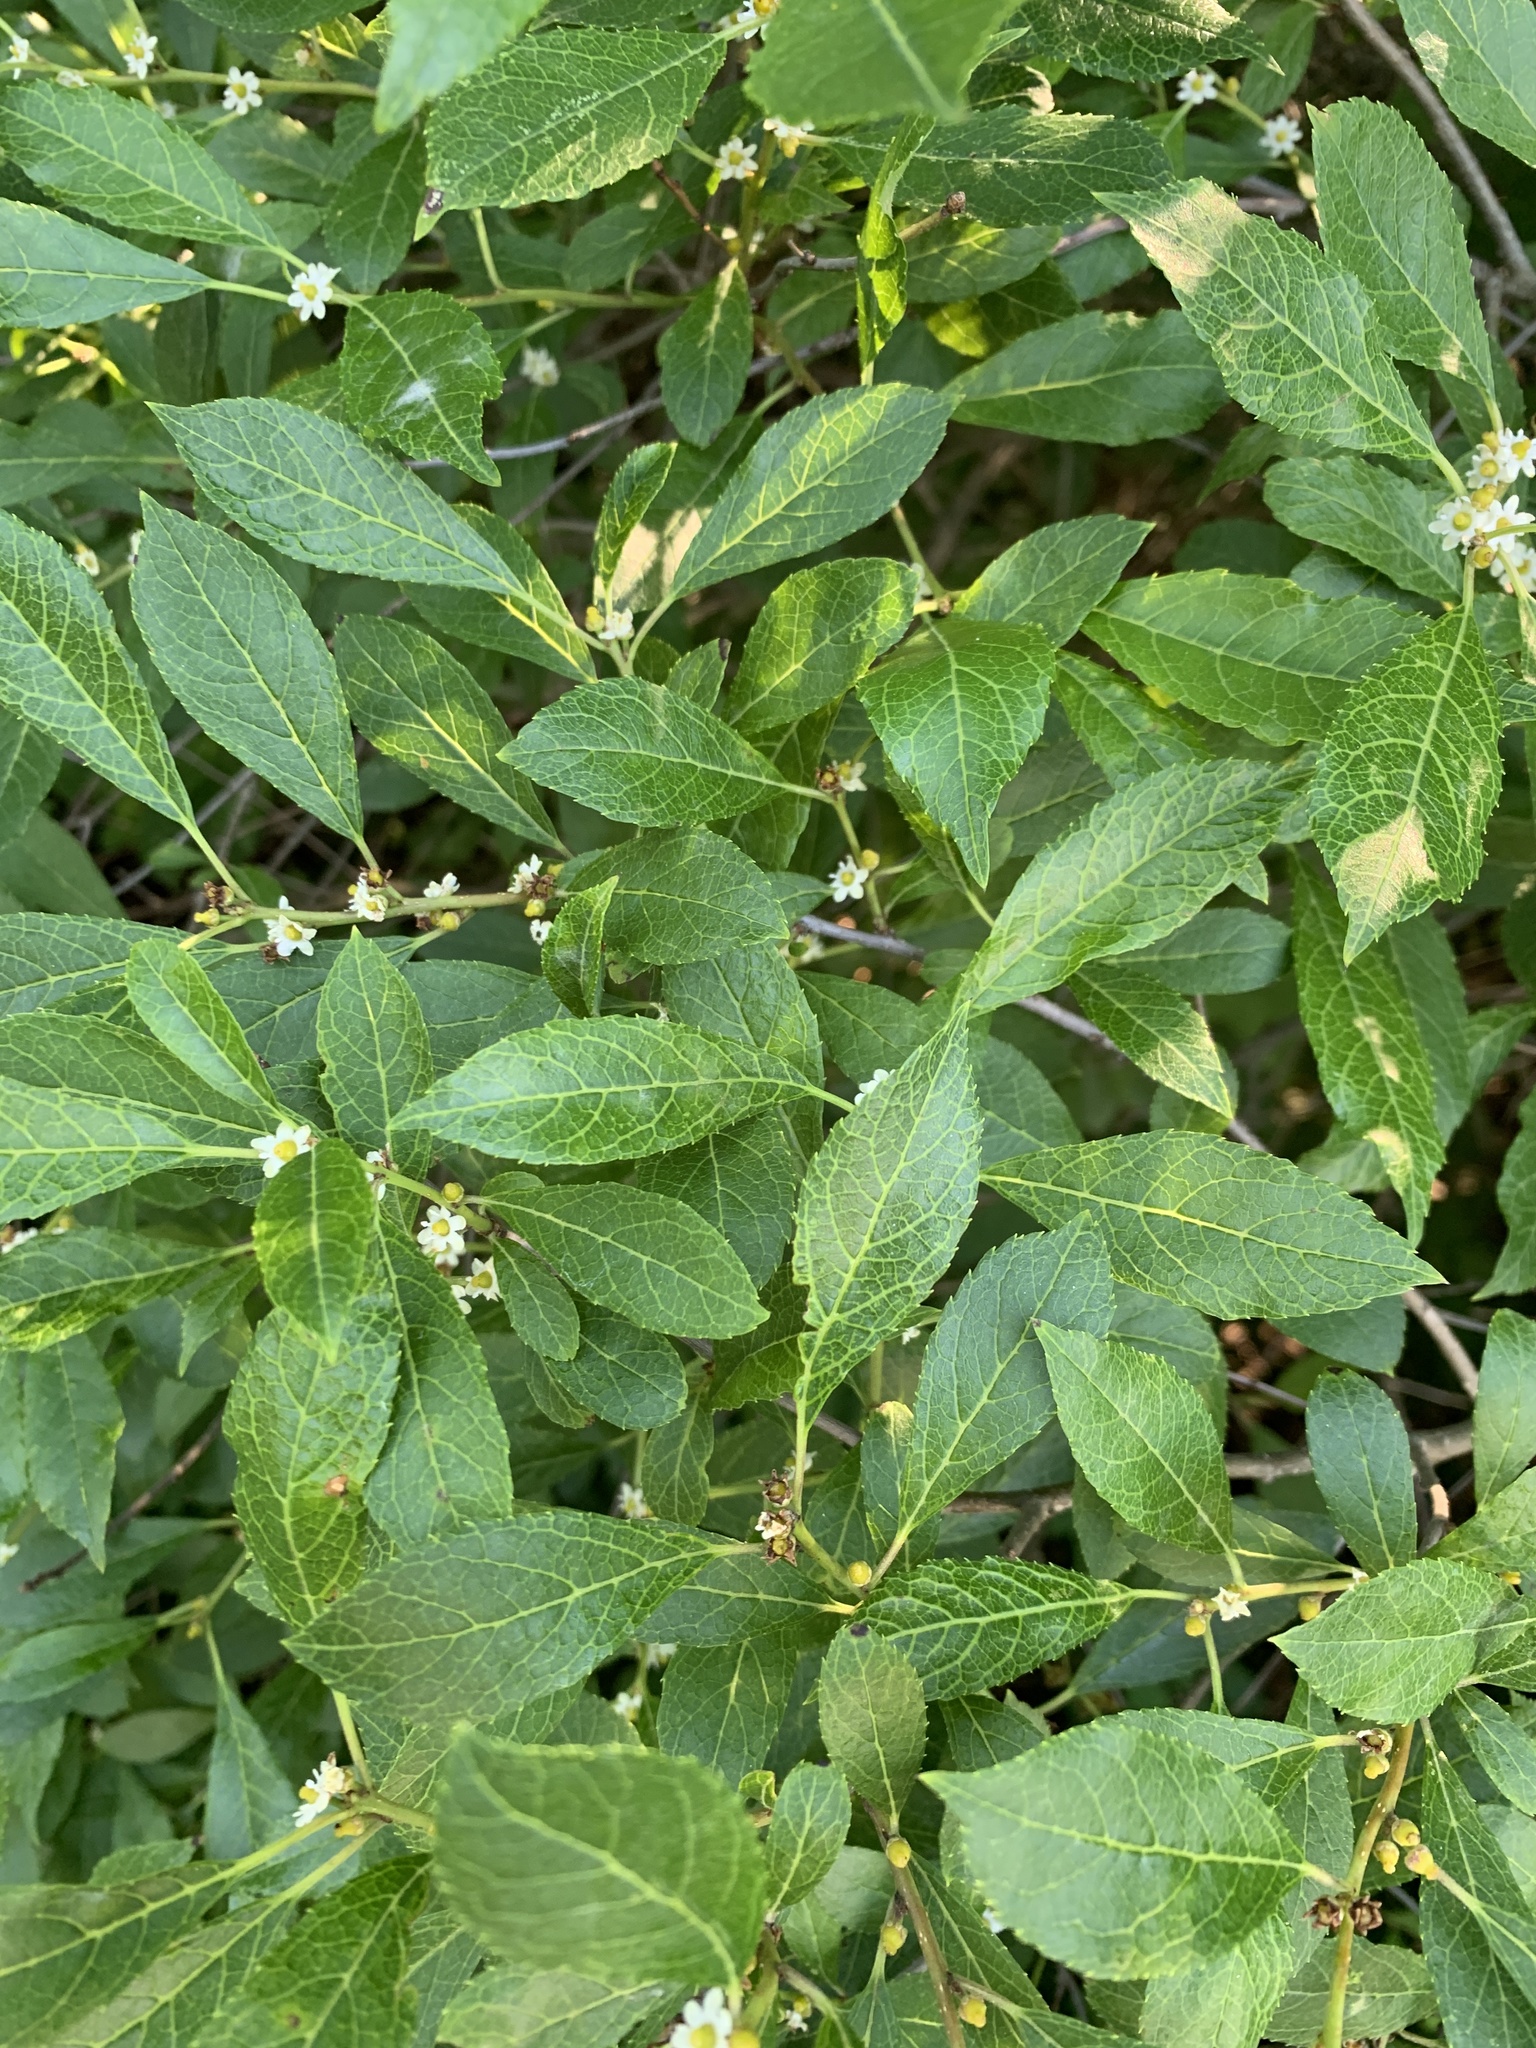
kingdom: Plantae
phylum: Tracheophyta
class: Magnoliopsida
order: Aquifoliales
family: Aquifoliaceae
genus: Ilex
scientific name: Ilex verticillata
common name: Virginia winterberry
